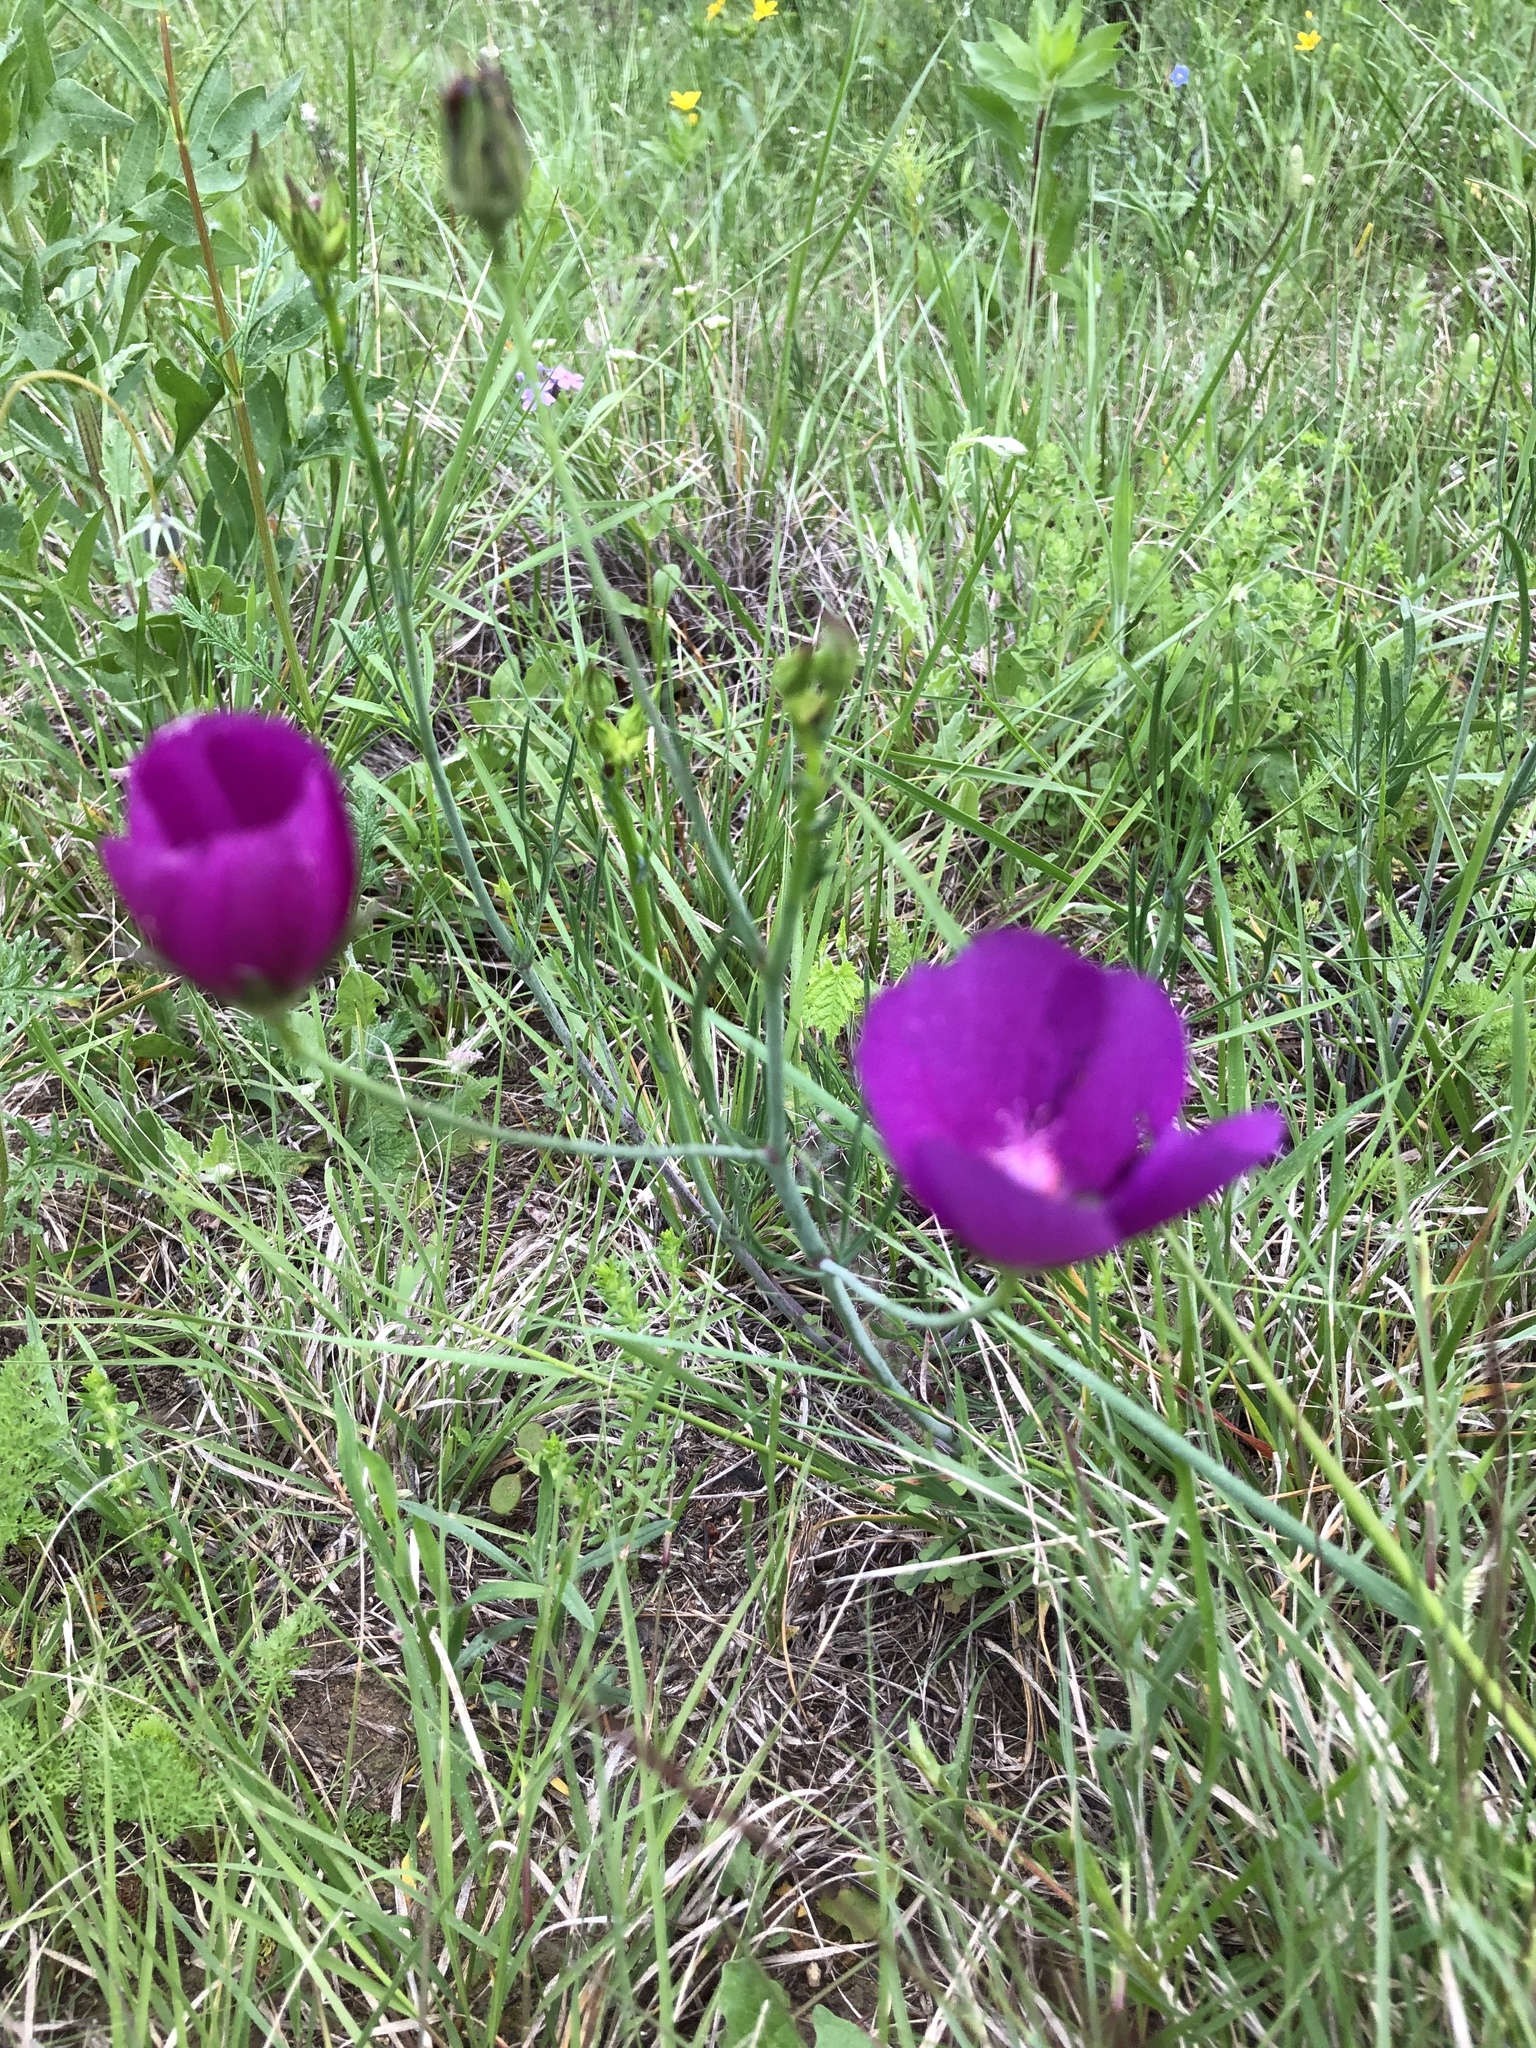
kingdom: Plantae
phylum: Tracheophyta
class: Magnoliopsida
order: Malvales
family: Malvaceae
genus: Callirhoe
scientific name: Callirhoe pedata
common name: Finger poppy-mallow
